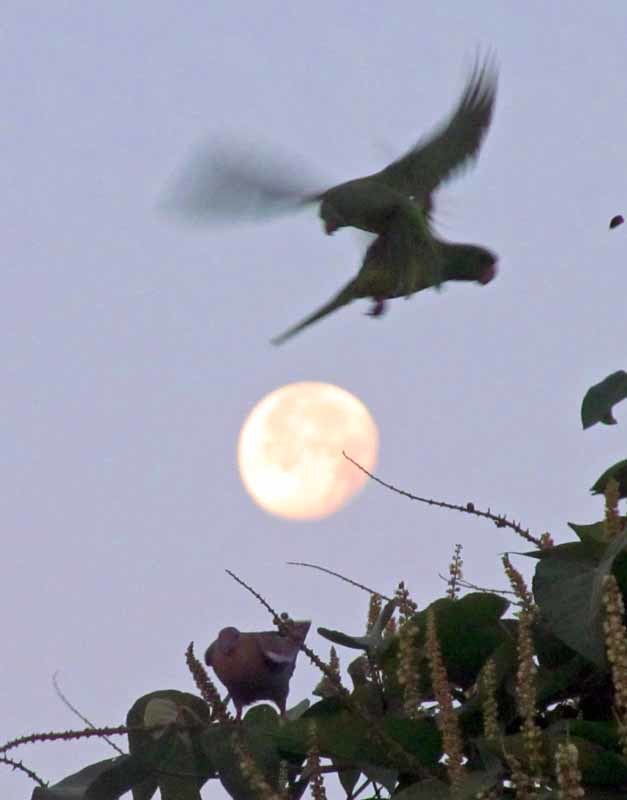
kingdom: Animalia
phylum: Chordata
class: Aves
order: Psittaciformes
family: Psittacidae
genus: Aratinga
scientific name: Aratinga holochlora
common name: Green parakeet
